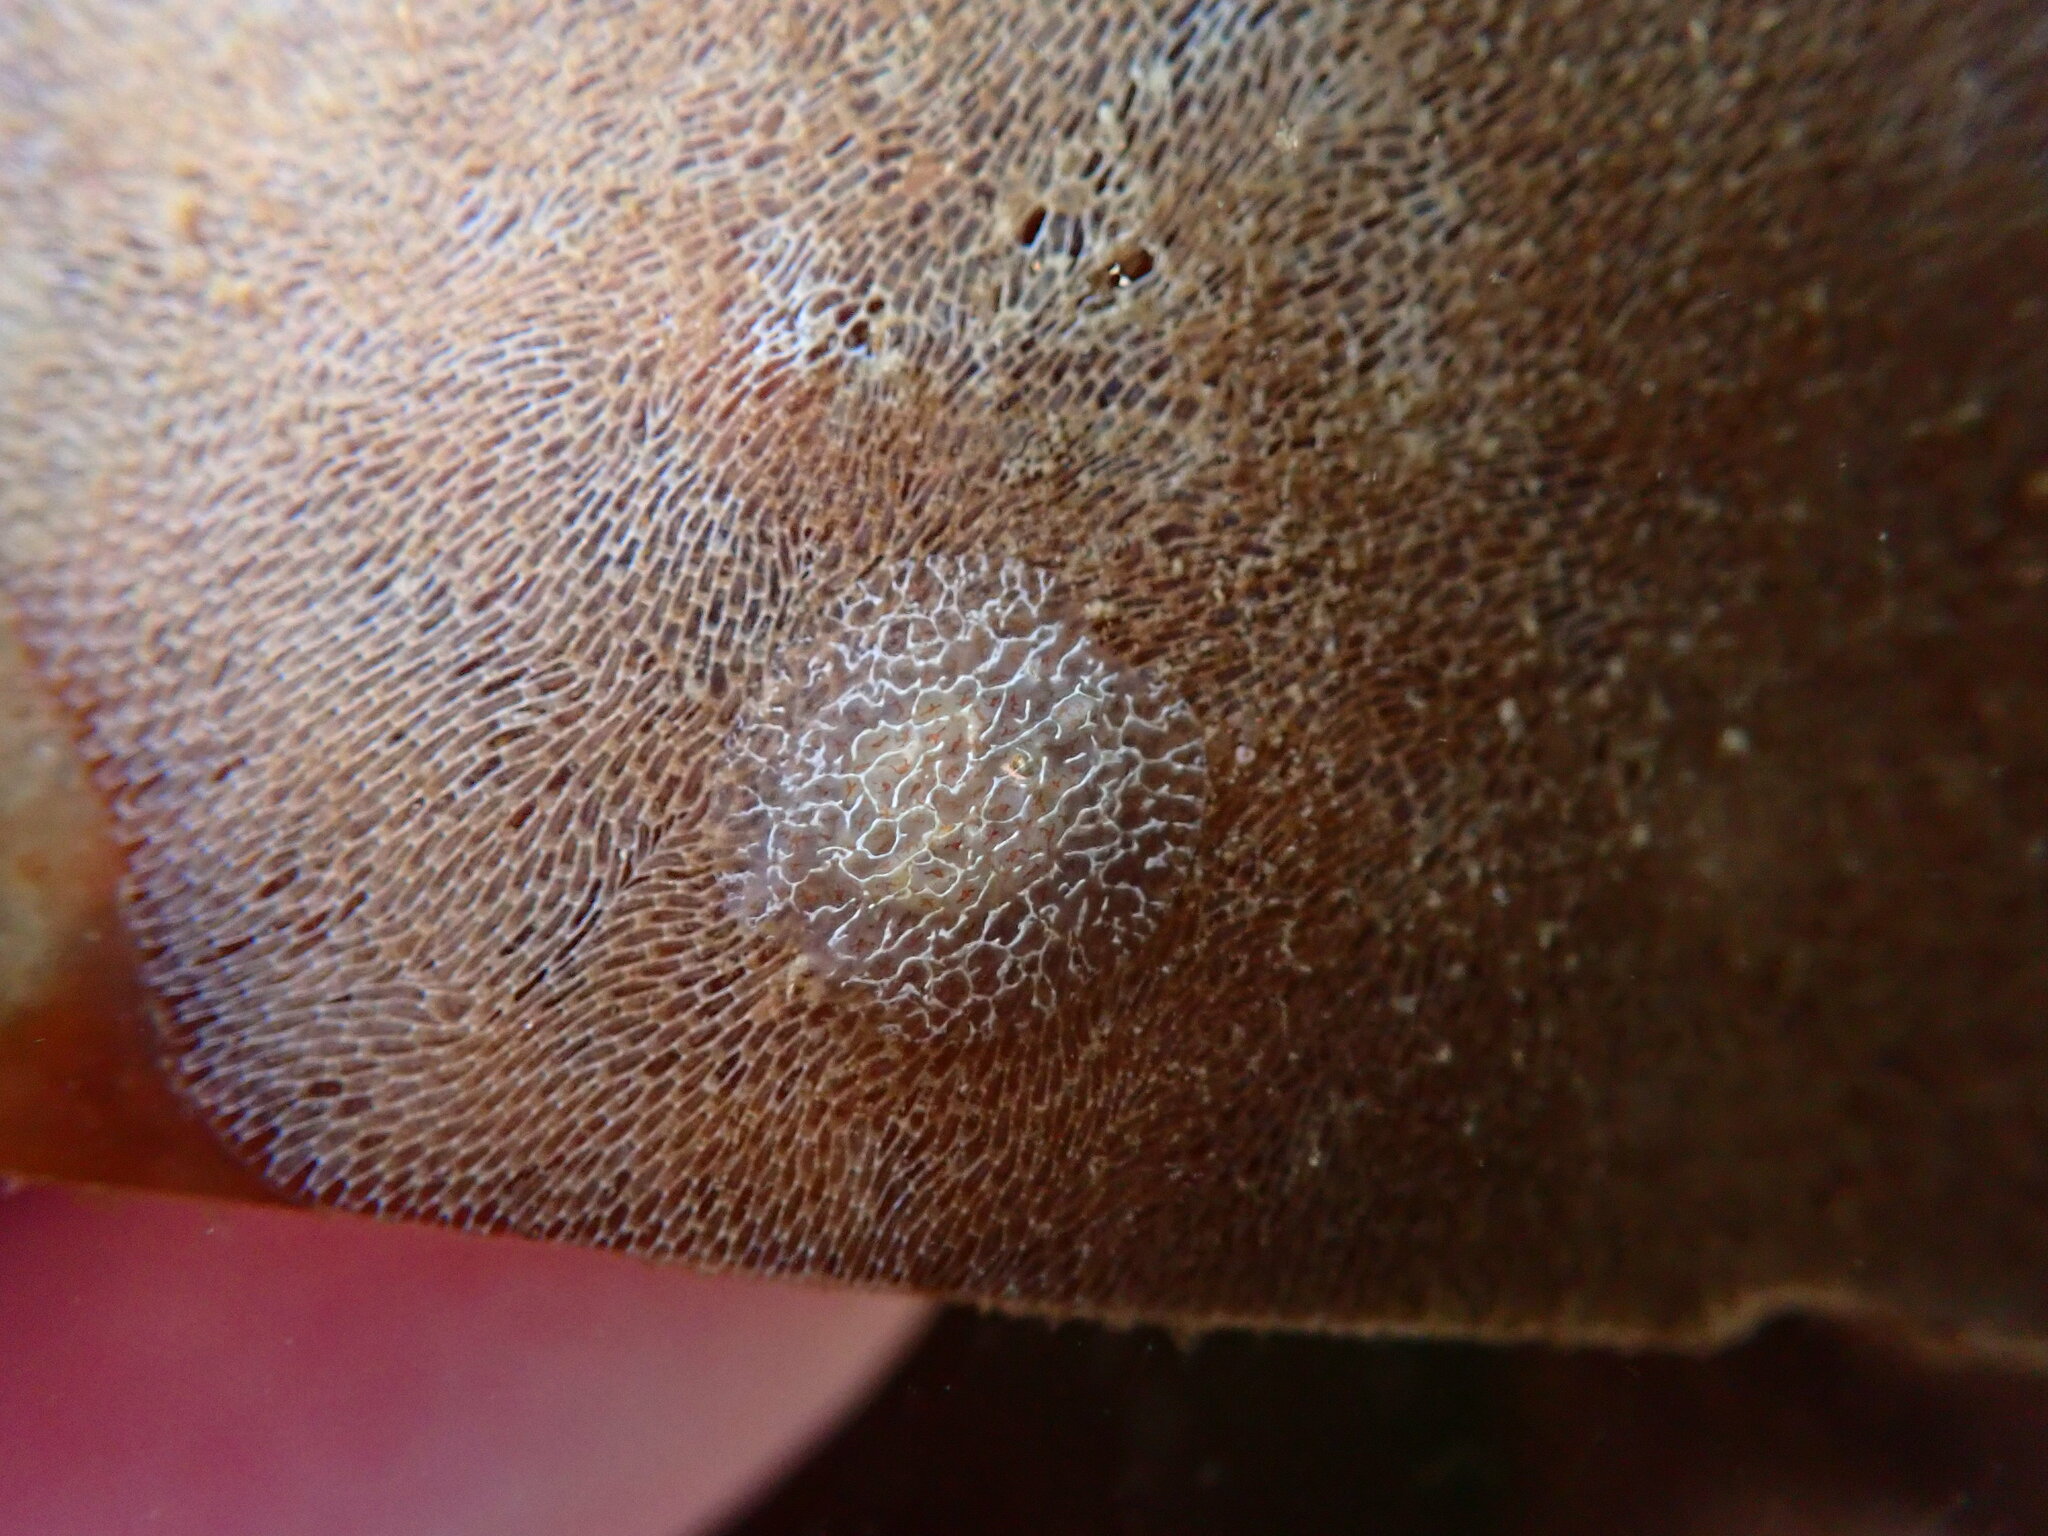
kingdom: Animalia
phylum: Mollusca
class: Gastropoda
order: Nudibranchia
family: Corambidae
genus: Corambe
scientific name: Corambe steinbergae
